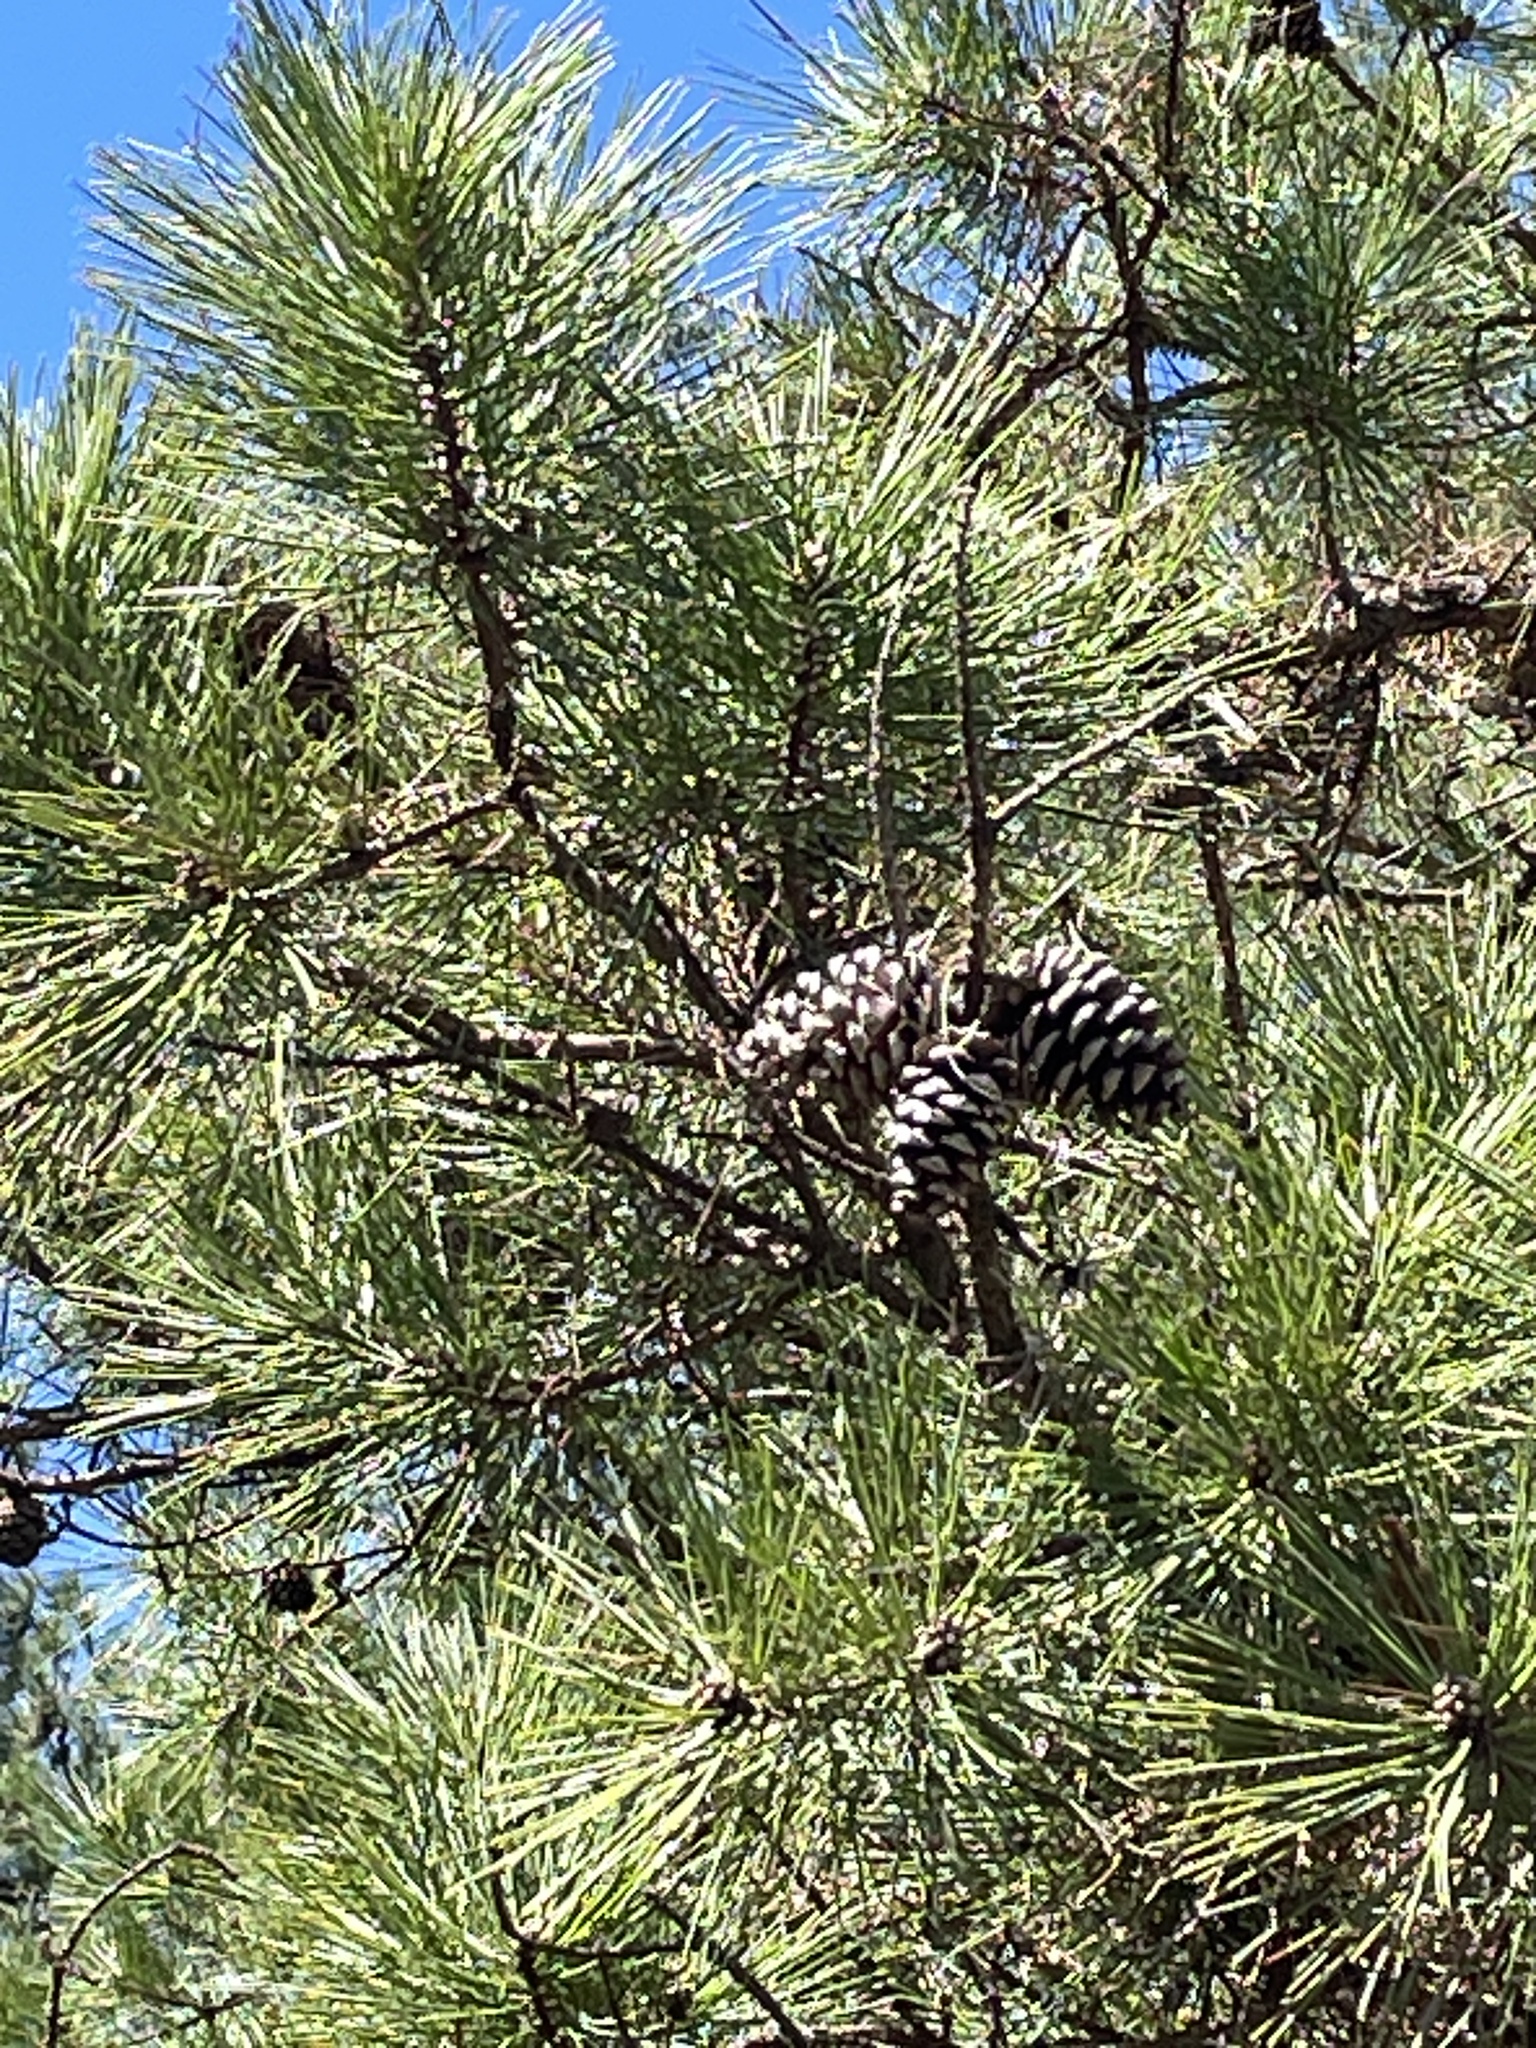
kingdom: Plantae
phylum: Tracheophyta
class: Pinopsida
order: Pinales
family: Pinaceae
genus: Pinus
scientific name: Pinus echinata
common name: Shortleaf pine
